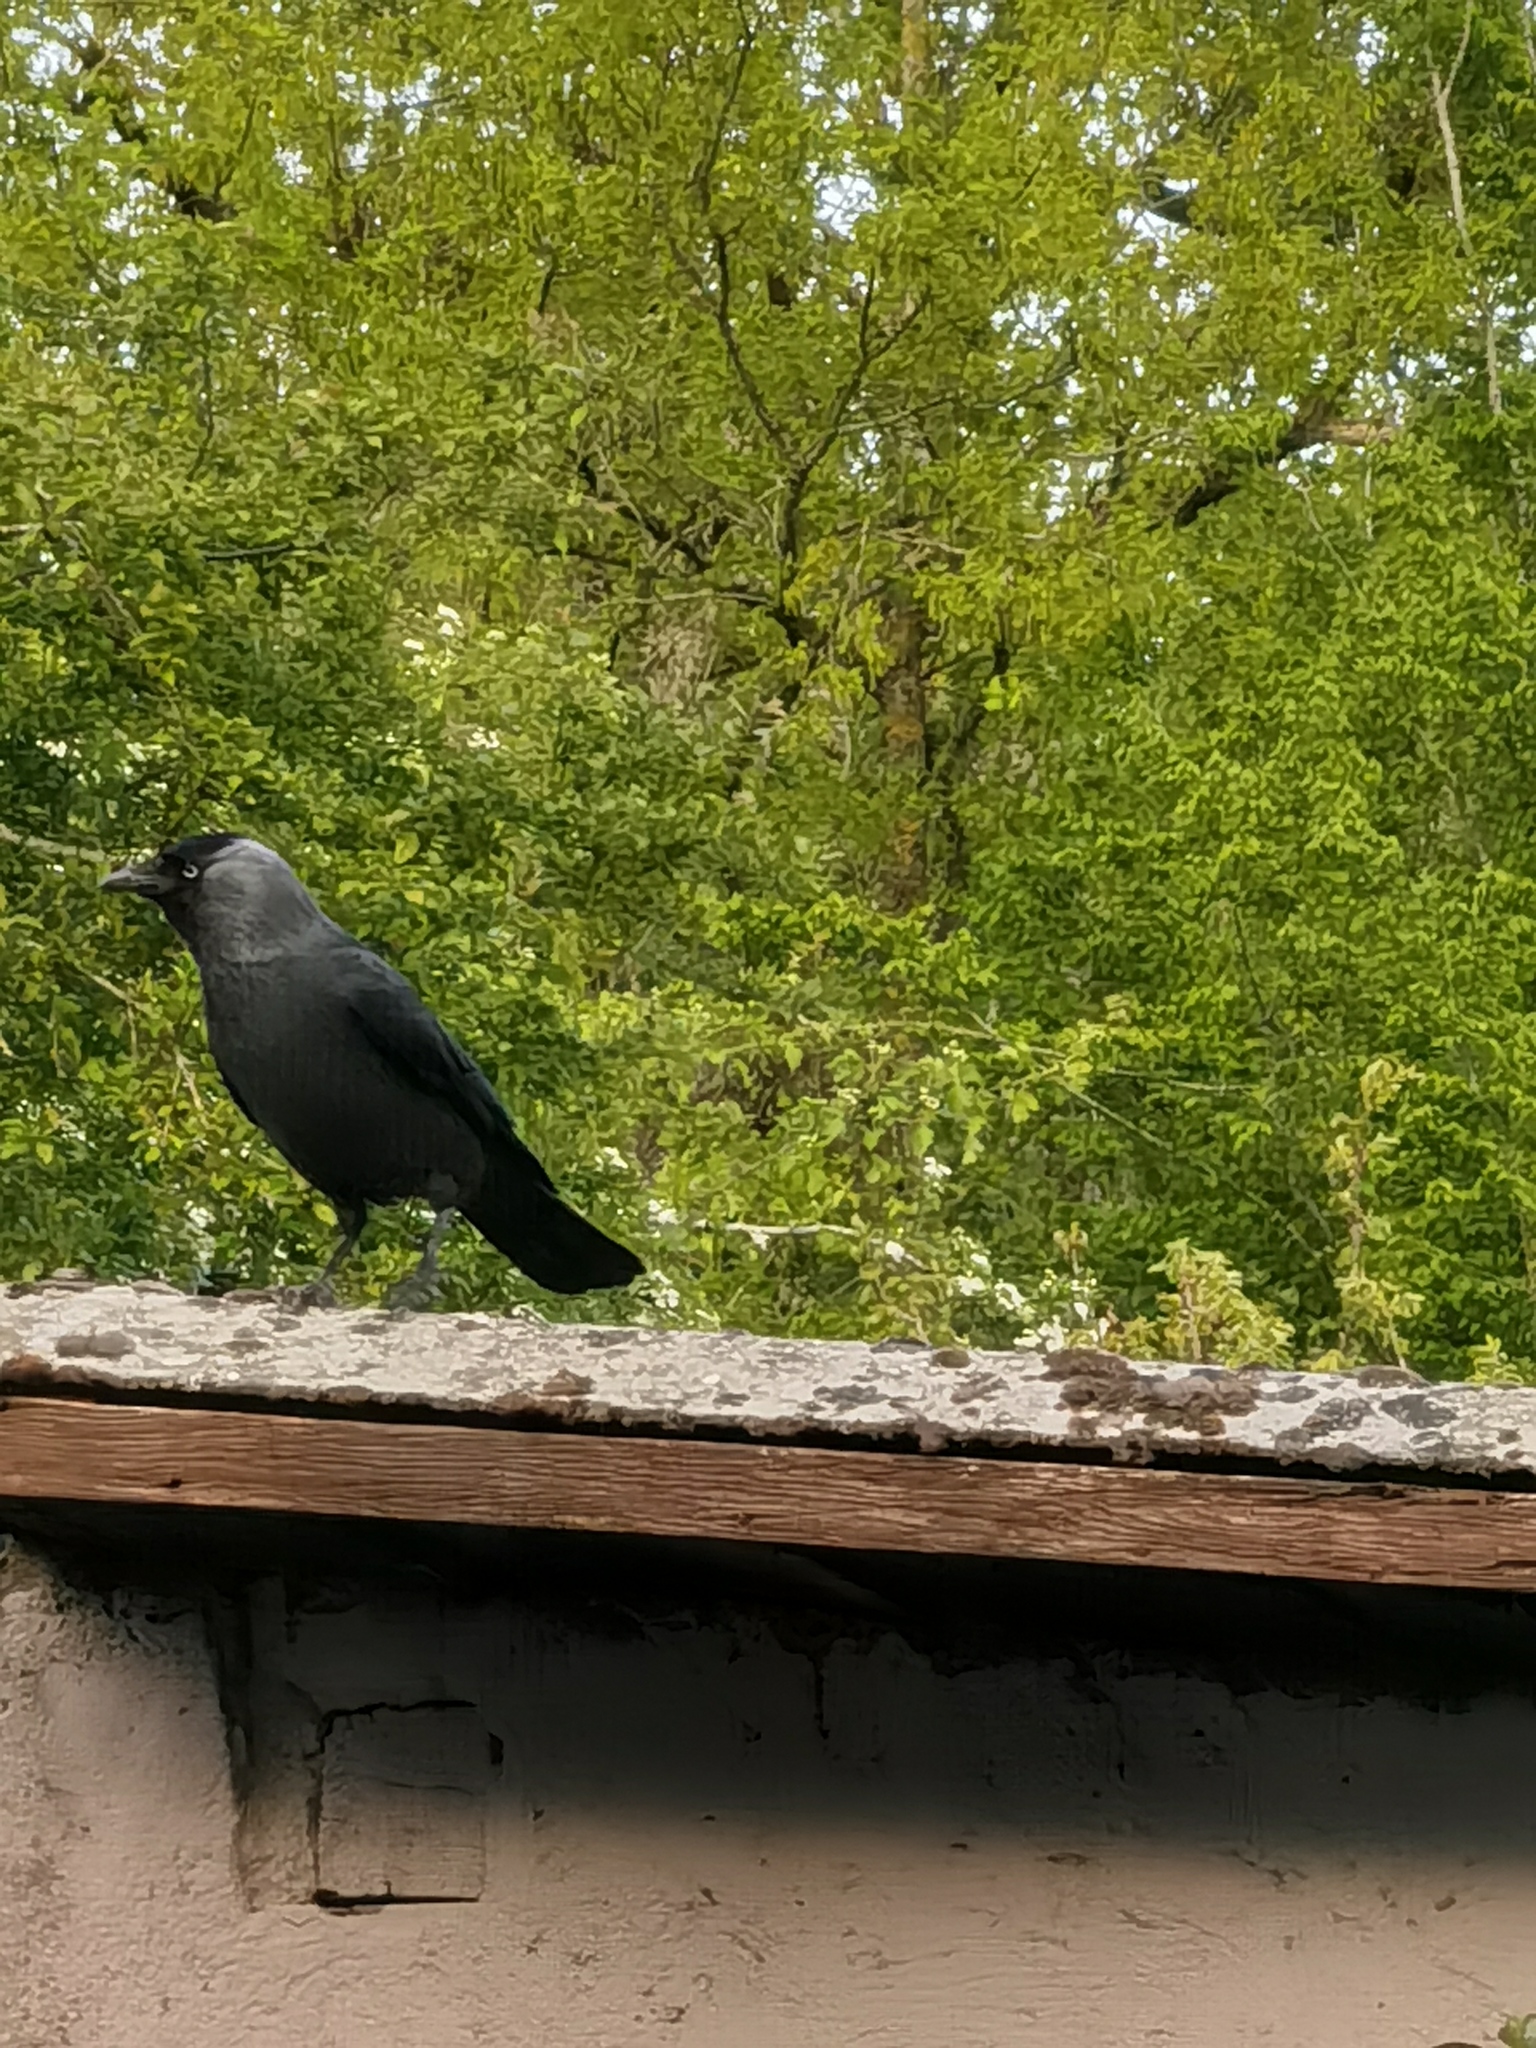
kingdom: Animalia
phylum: Chordata
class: Aves
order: Passeriformes
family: Corvidae
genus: Coloeus
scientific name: Coloeus monedula
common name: Western jackdaw
